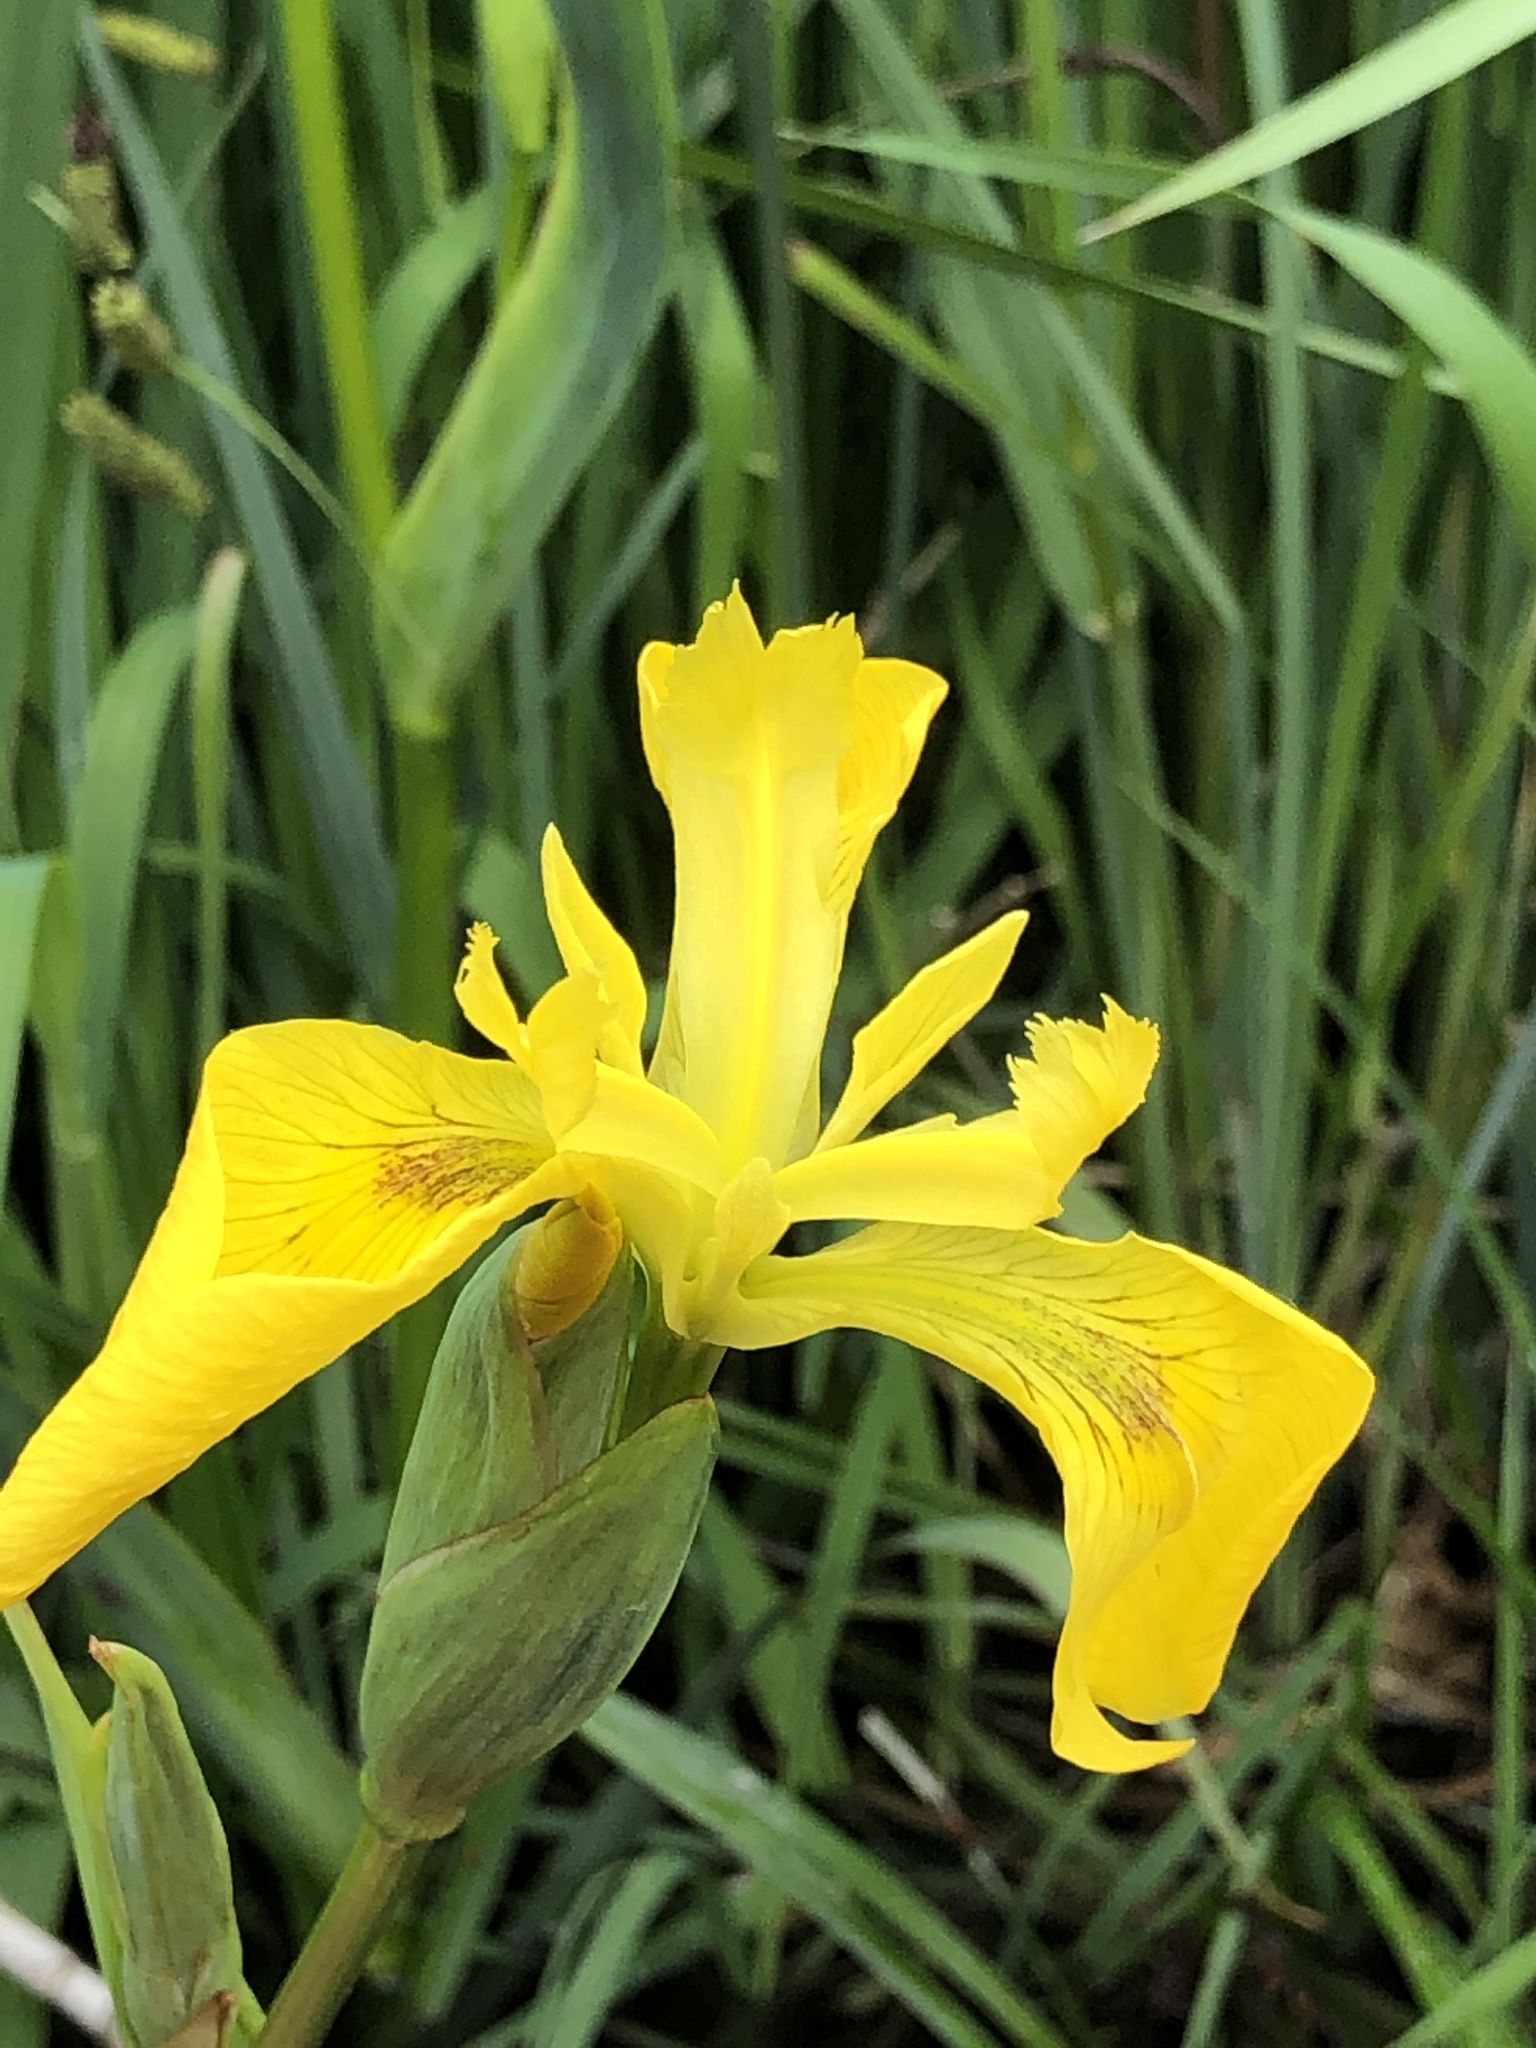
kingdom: Plantae
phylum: Tracheophyta
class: Liliopsida
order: Asparagales
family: Iridaceae
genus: Iris
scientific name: Iris pseudacorus
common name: Yellow flag
